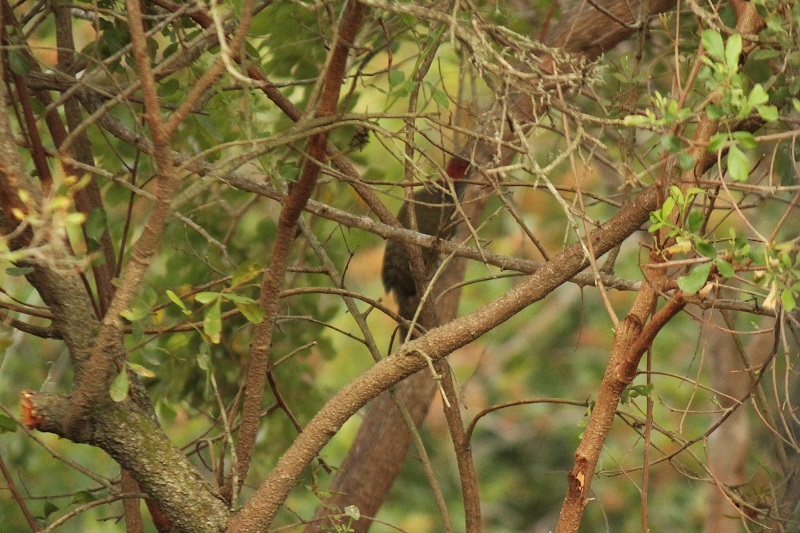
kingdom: Animalia
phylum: Chordata
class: Aves
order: Piciformes
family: Picidae
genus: Campethera
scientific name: Campethera notata
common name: Knysna woodpecker
